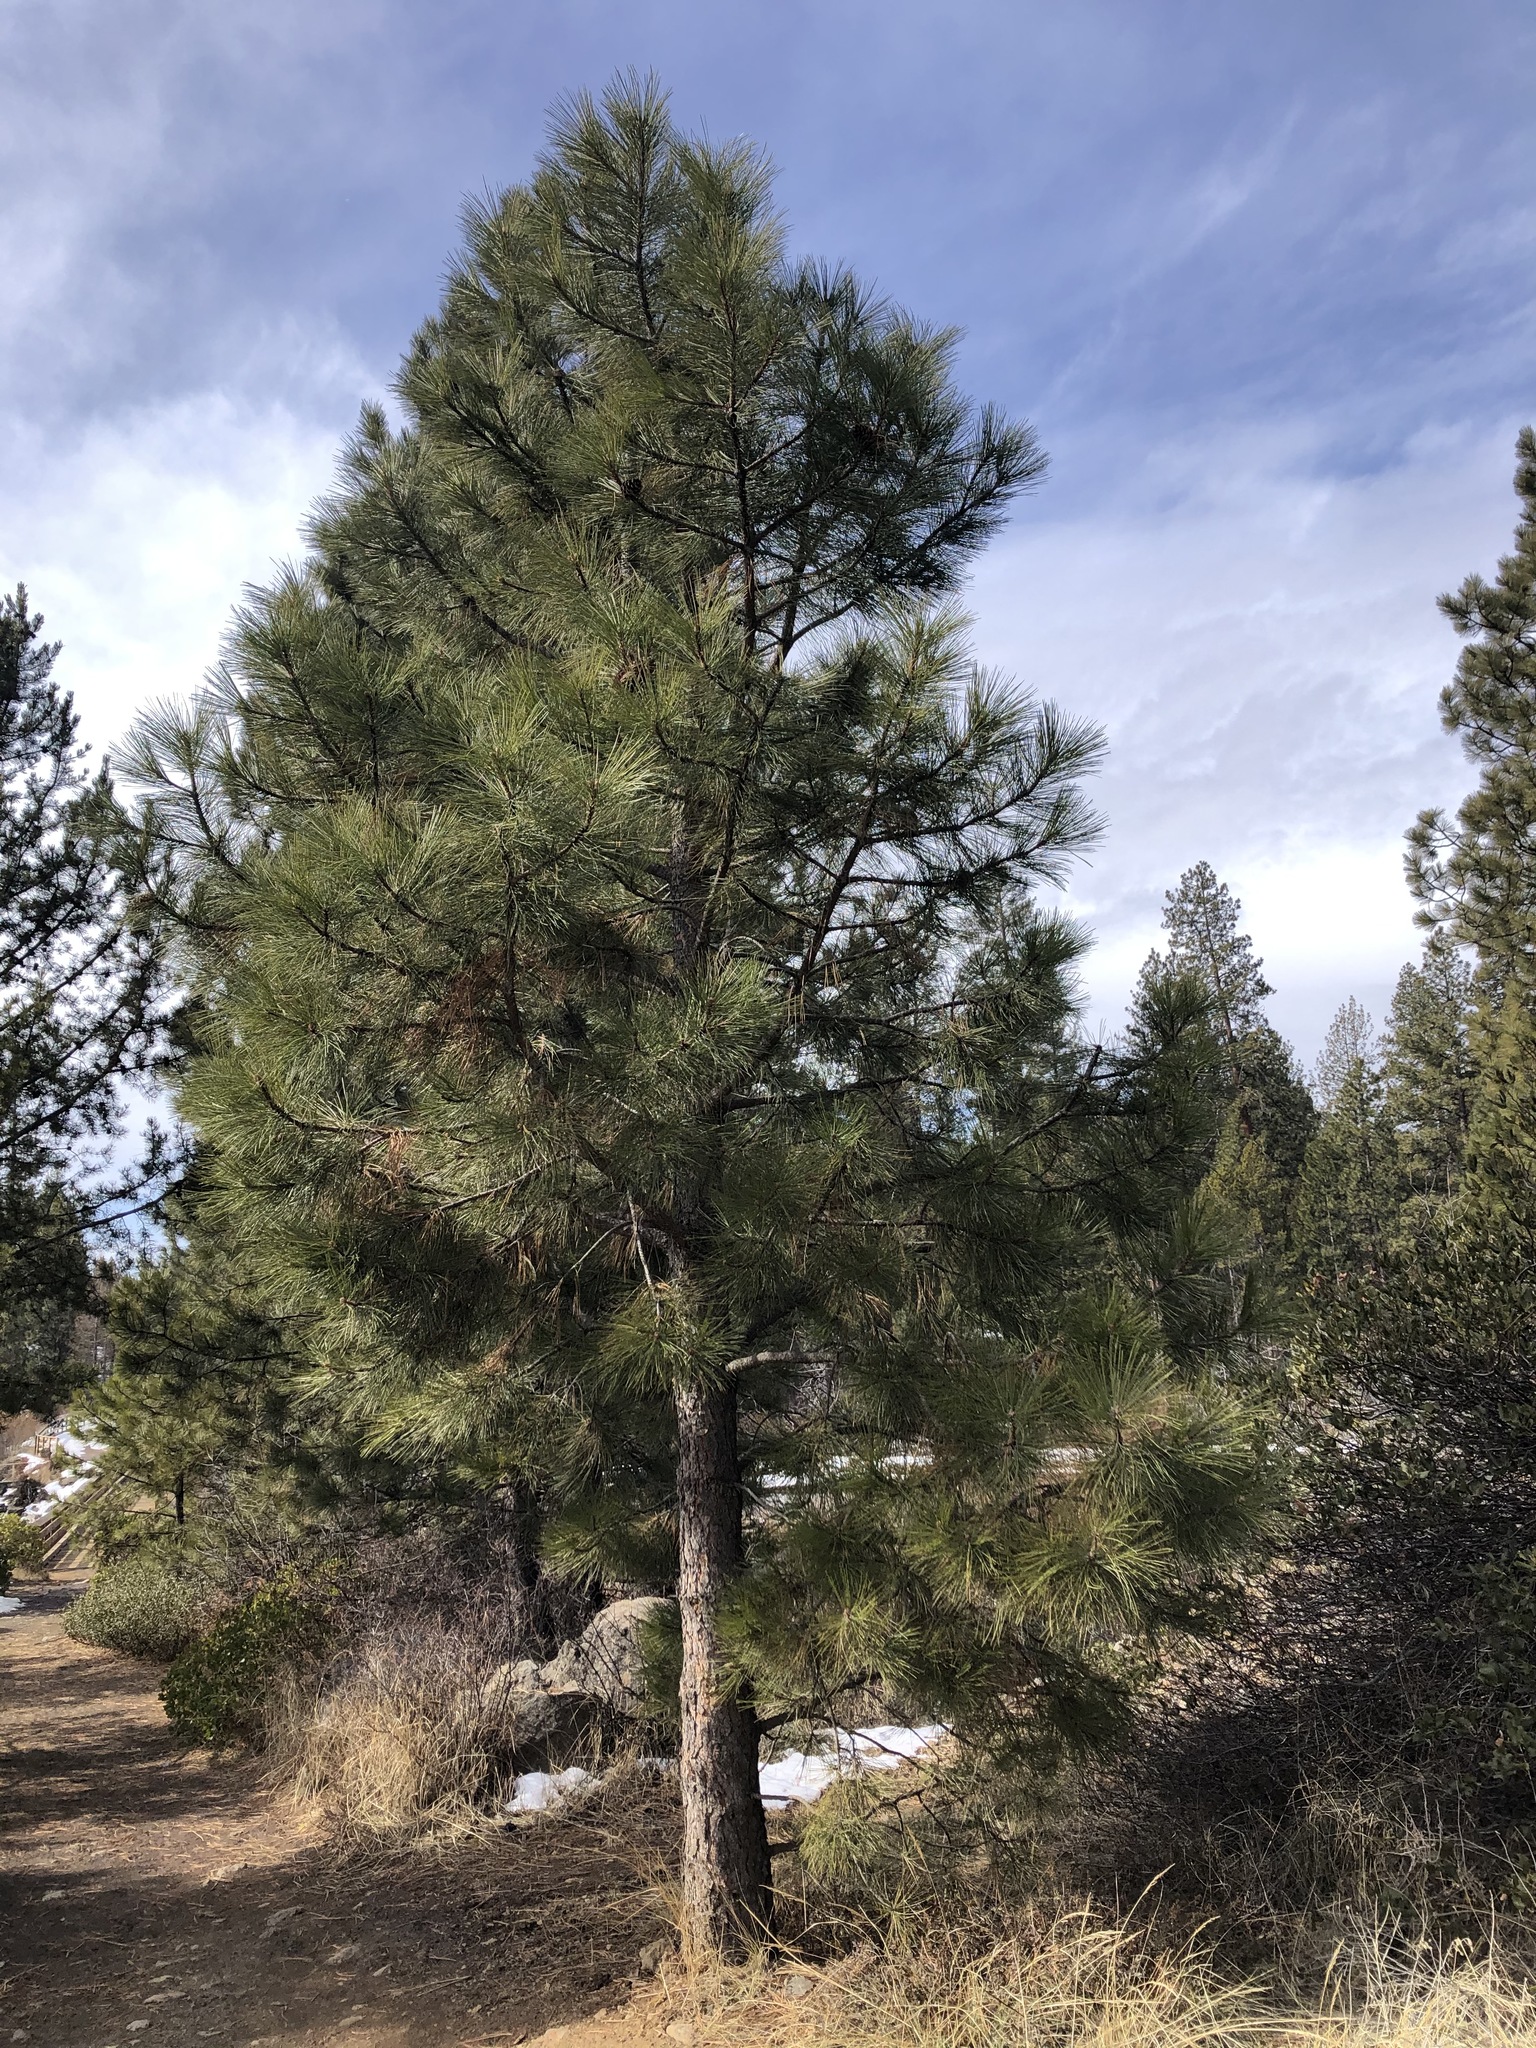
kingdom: Plantae
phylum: Tracheophyta
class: Pinopsida
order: Pinales
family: Pinaceae
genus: Pinus
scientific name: Pinus ponderosa
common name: Western yellow-pine
